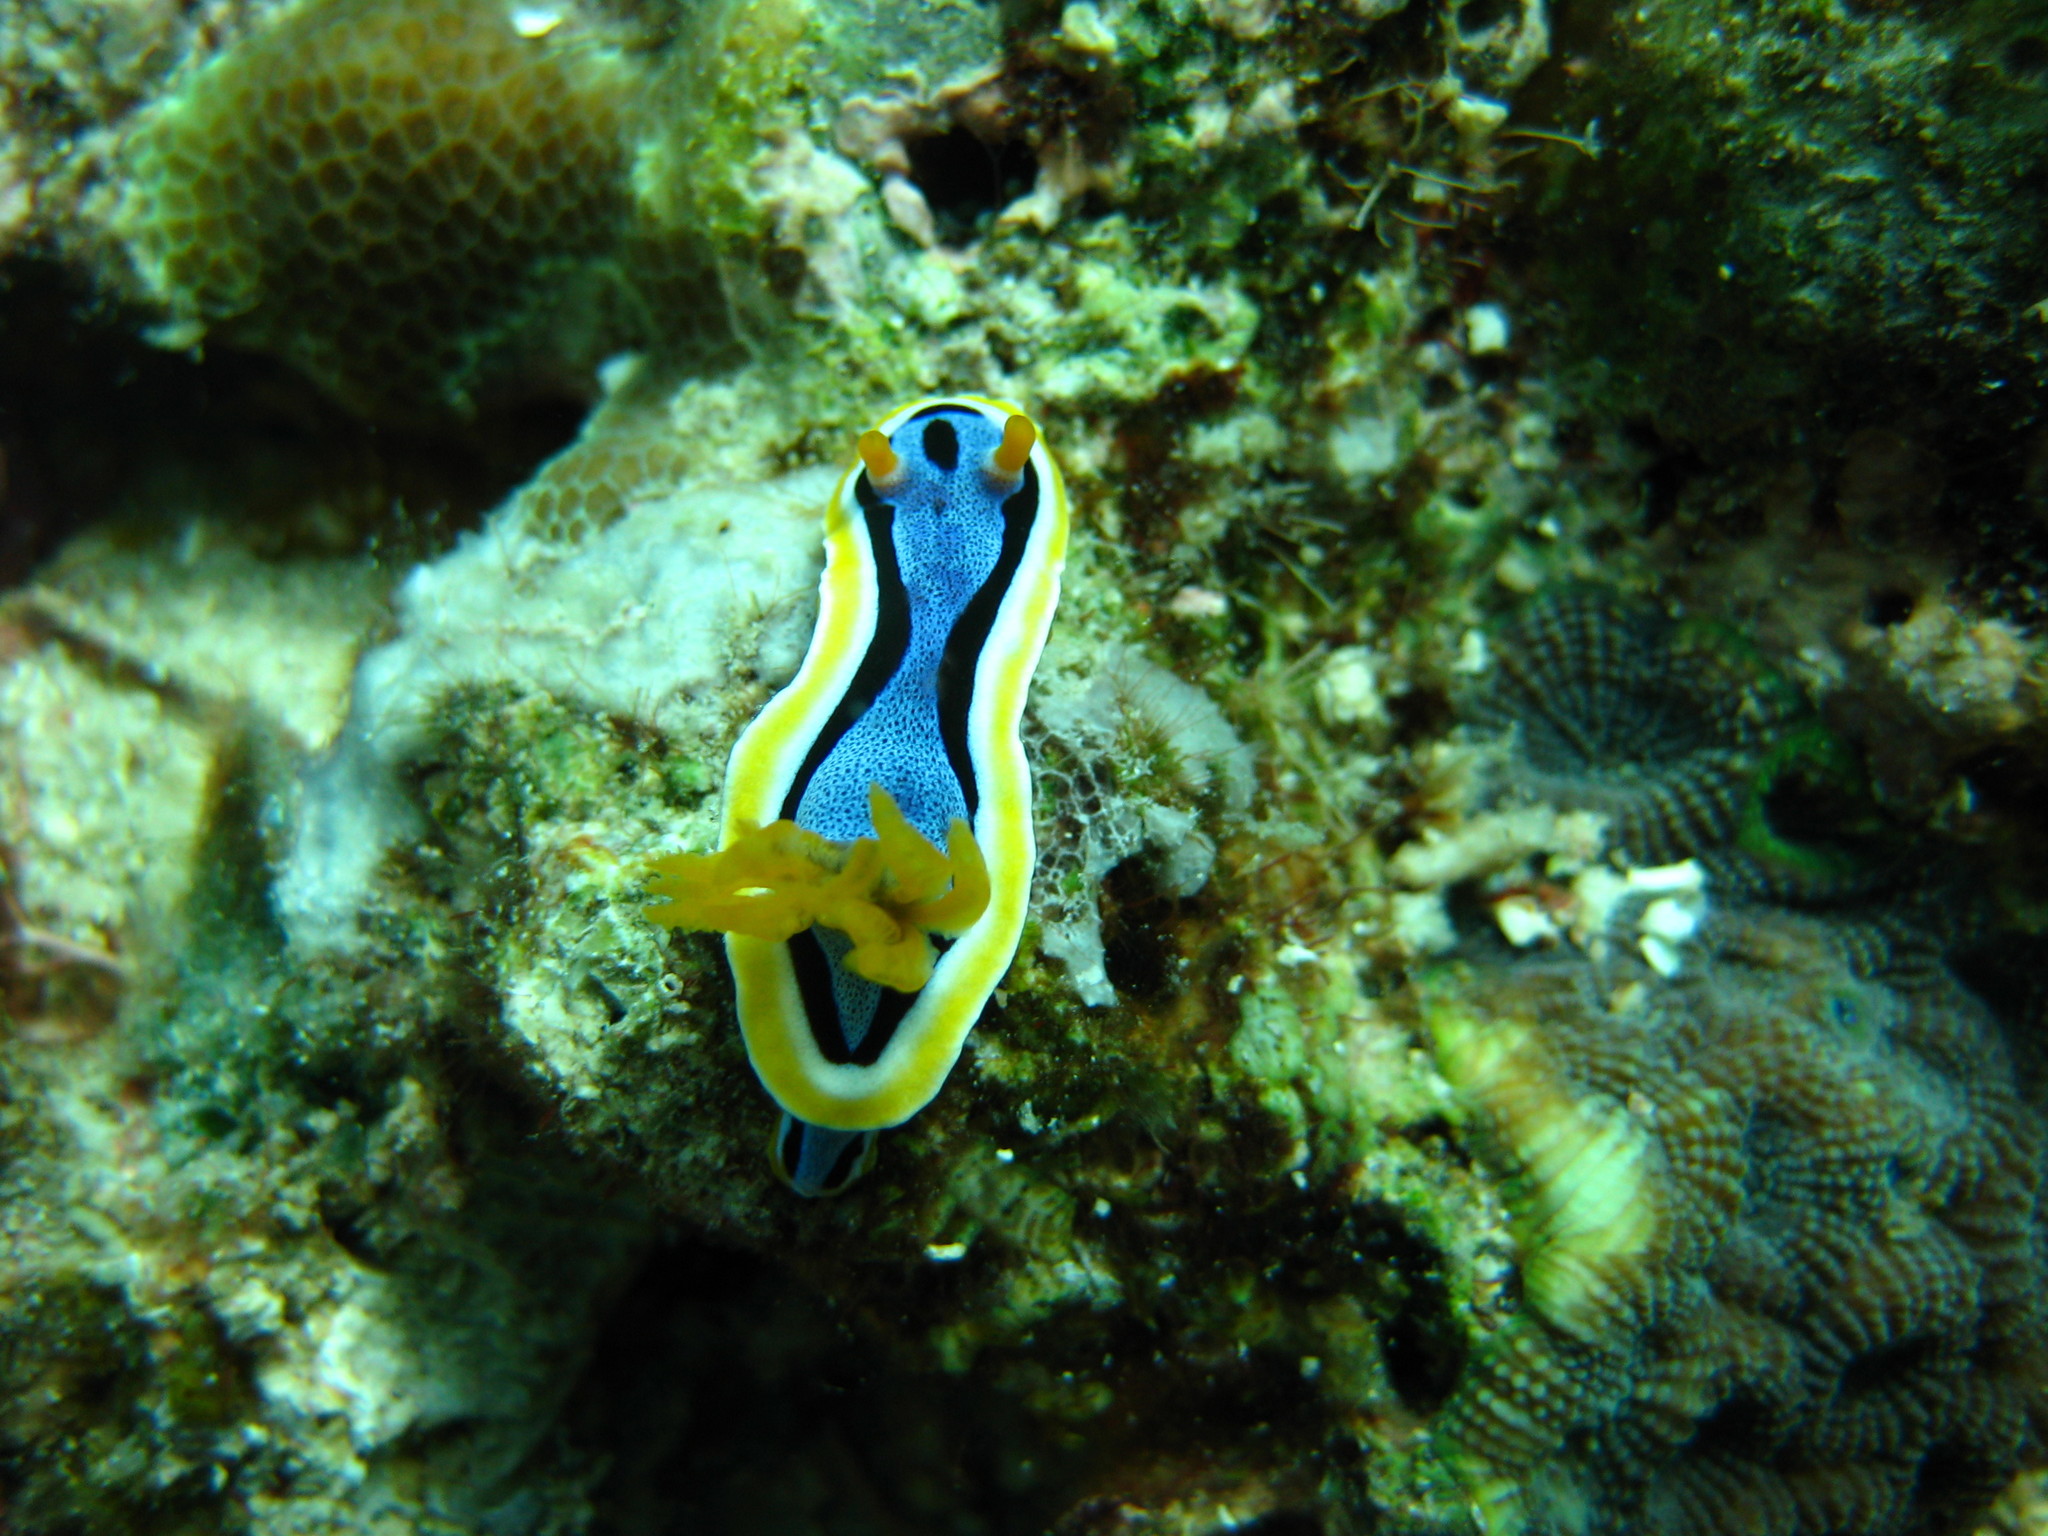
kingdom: Animalia
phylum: Mollusca
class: Gastropoda
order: Nudibranchia
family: Chromodorididae
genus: Chromodoris
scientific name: Chromodoris annae
